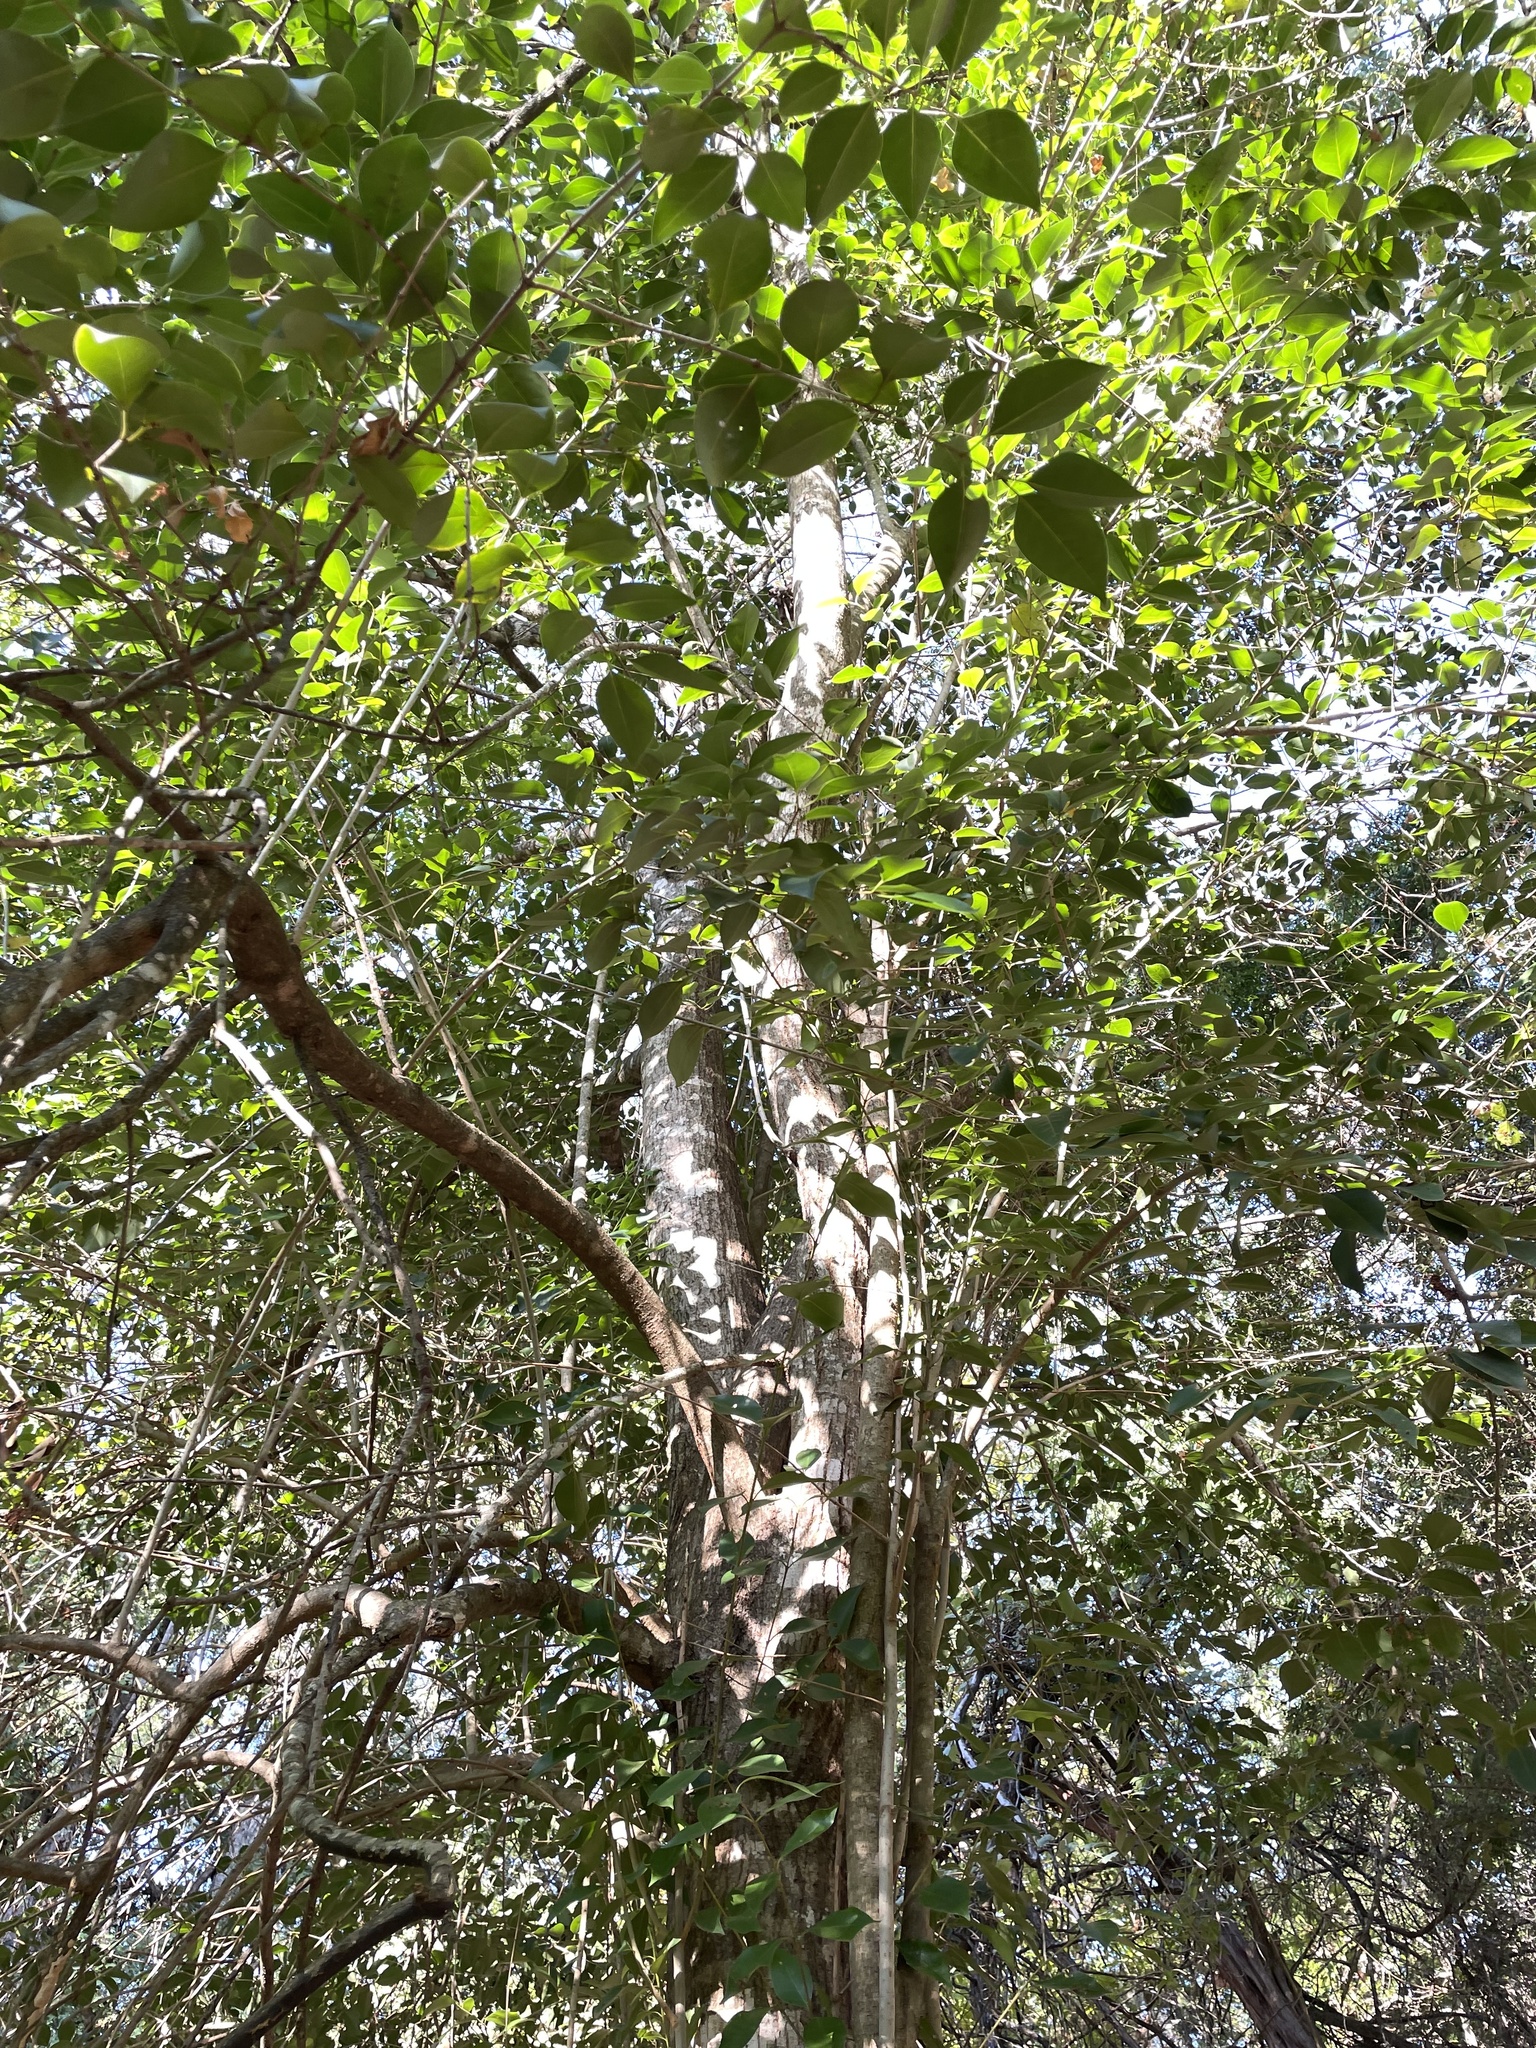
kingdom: Plantae
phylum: Tracheophyta
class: Magnoliopsida
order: Lamiales
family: Oleaceae
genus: Ligustrum
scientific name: Ligustrum lucidum
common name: Glossy privet
